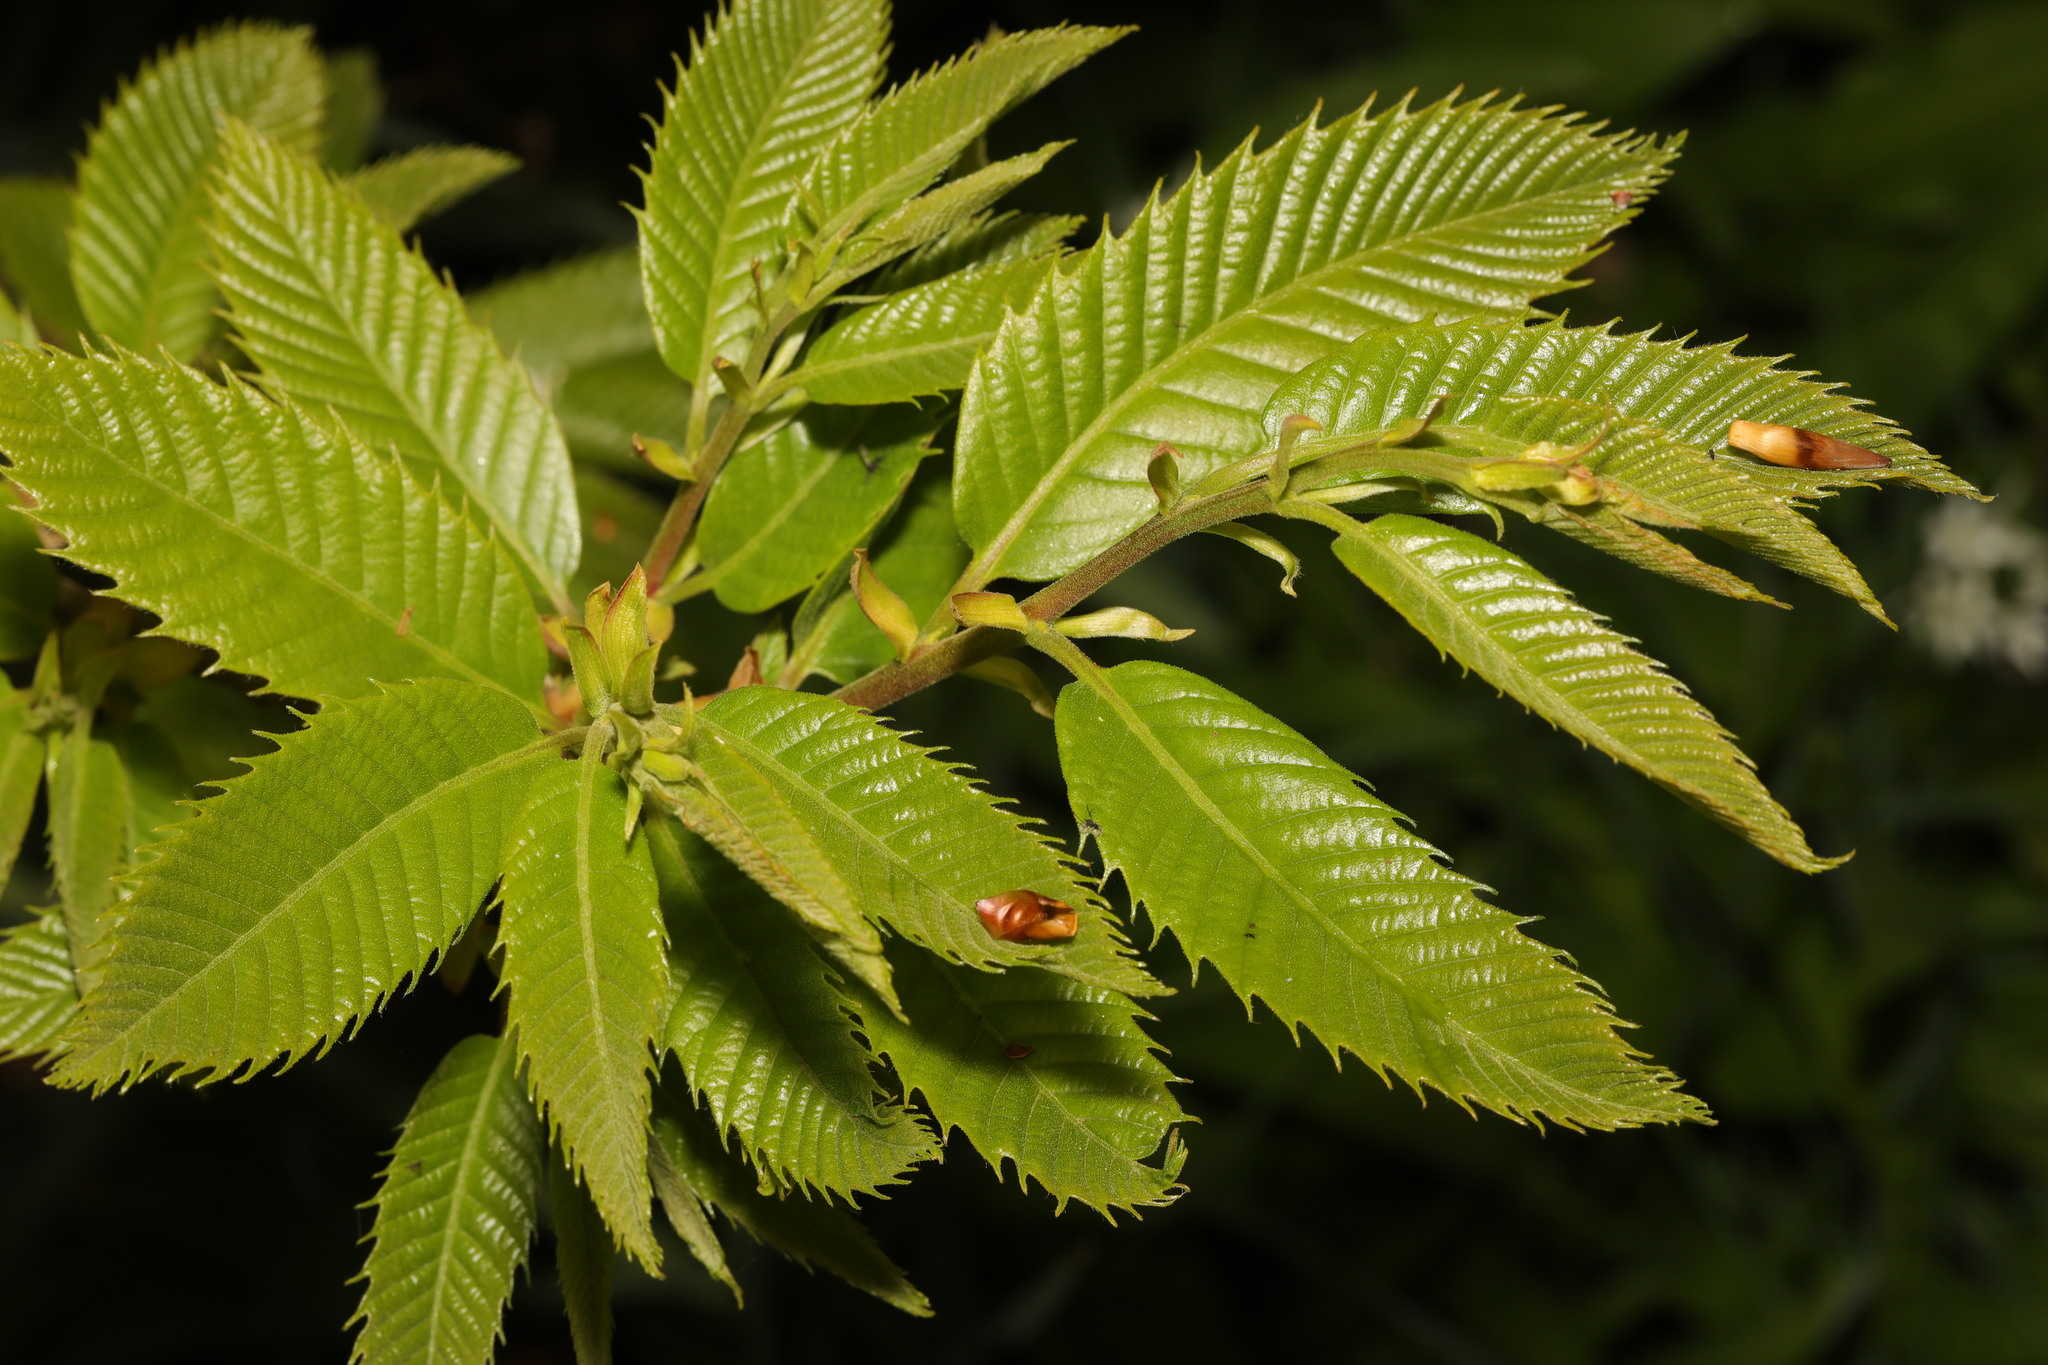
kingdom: Plantae
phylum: Tracheophyta
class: Magnoliopsida
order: Fagales
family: Fagaceae
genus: Castanea
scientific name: Castanea sativa
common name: Sweet chestnut
